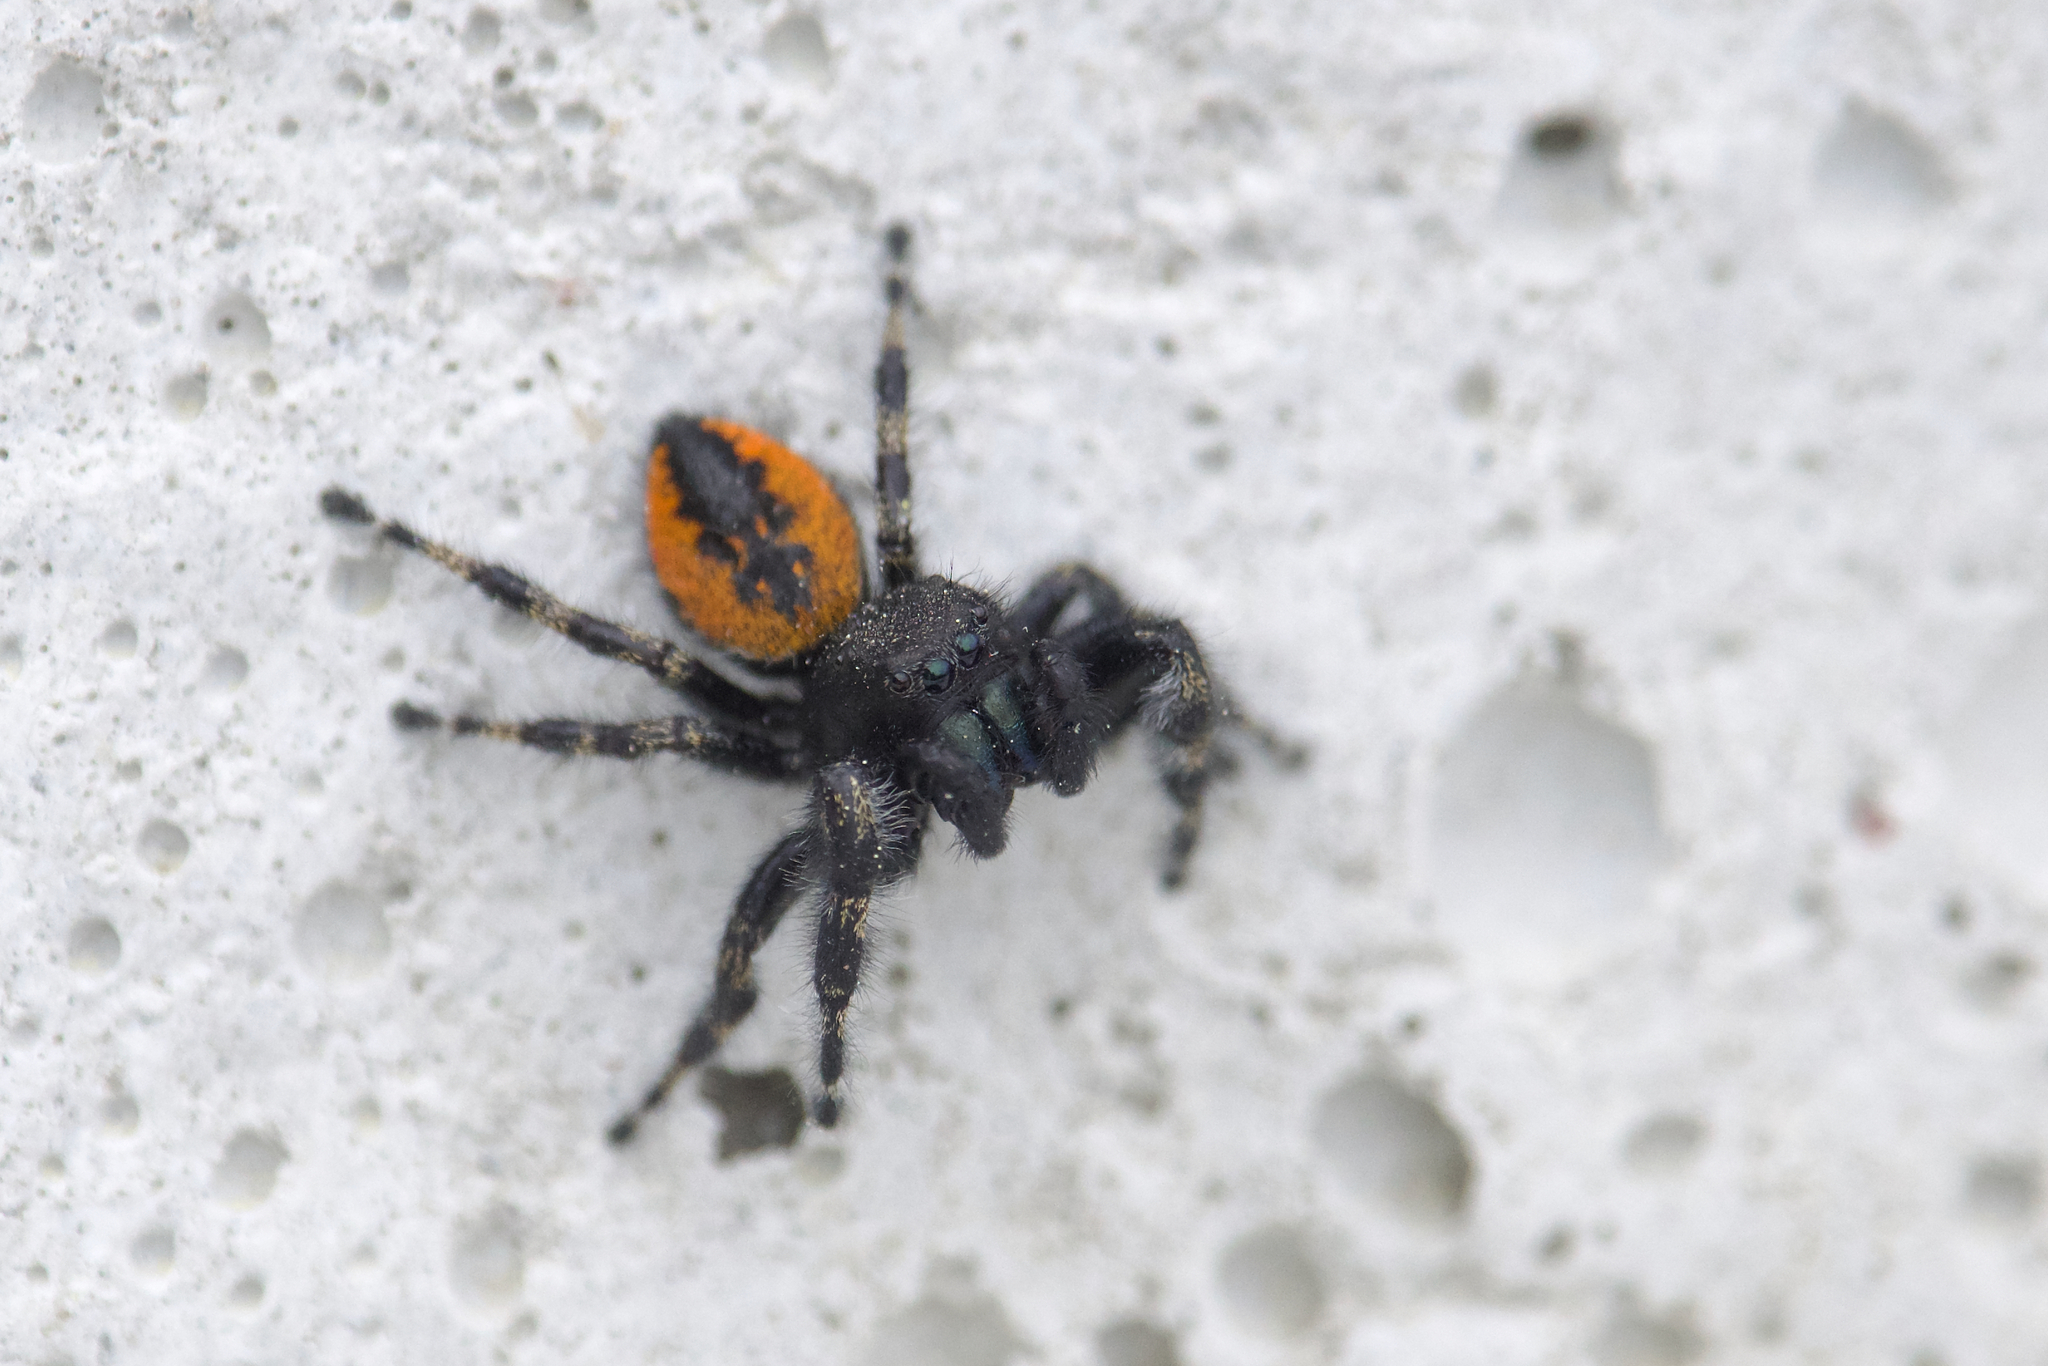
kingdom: Animalia
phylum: Arthropoda
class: Arachnida
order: Araneae
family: Salticidae
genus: Phidippus
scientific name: Phidippus borealis
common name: Boreal tufted jumping spider
